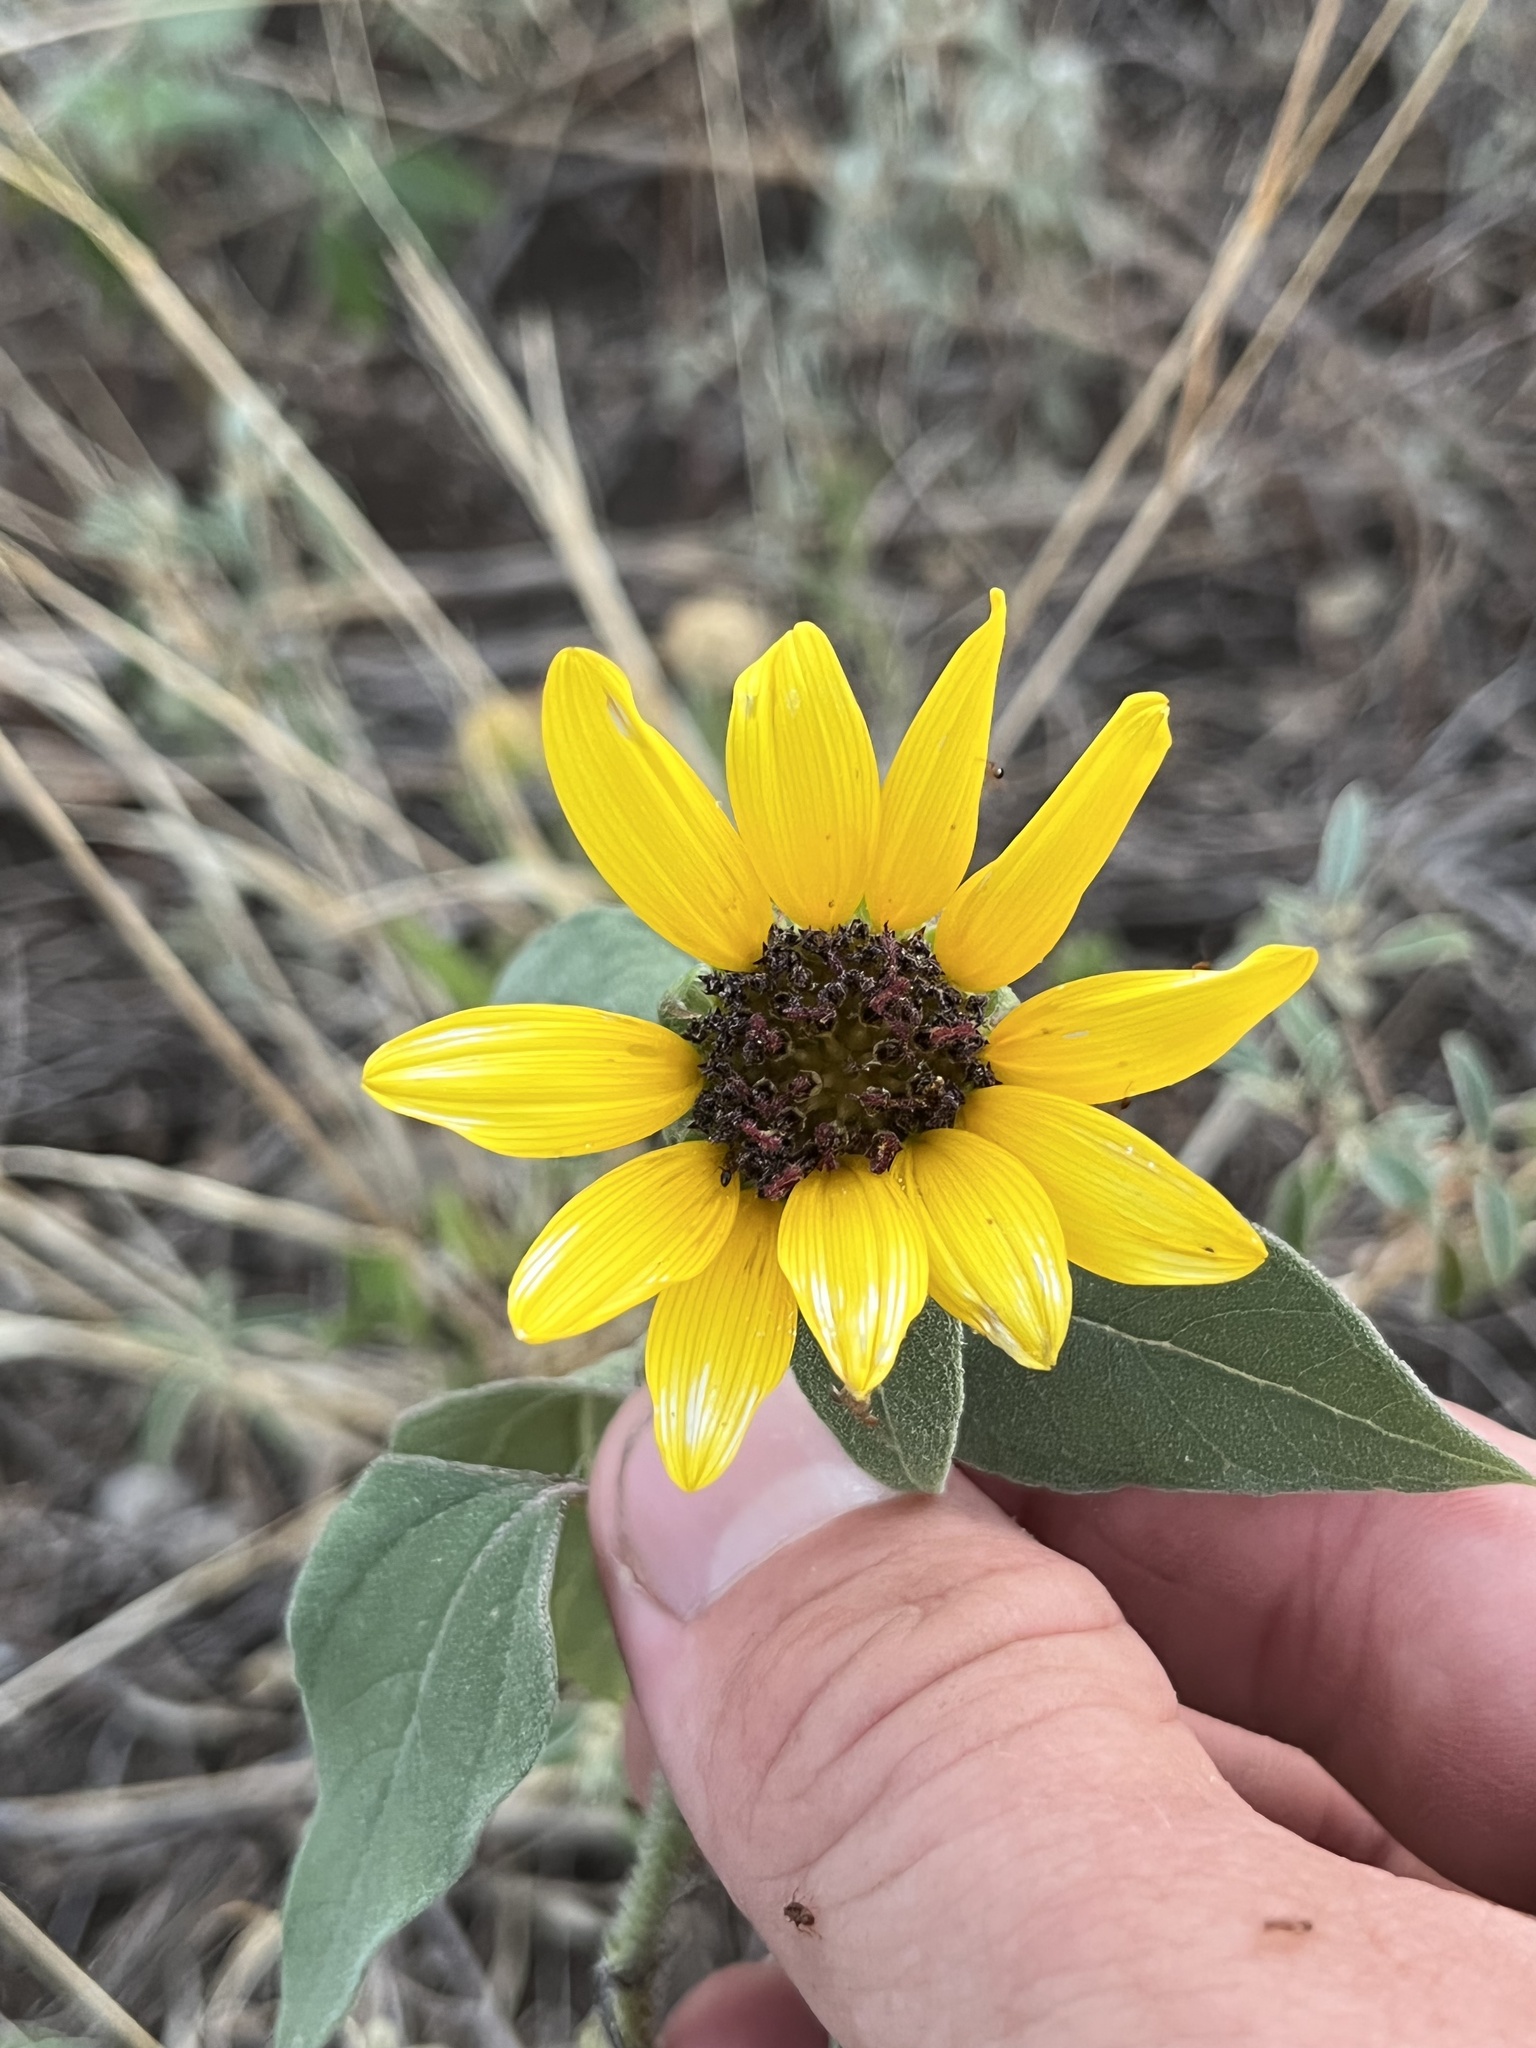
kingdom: Plantae
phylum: Tracheophyta
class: Magnoliopsida
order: Asterales
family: Asteraceae
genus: Helianthus
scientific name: Helianthus annuus
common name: Sunflower
